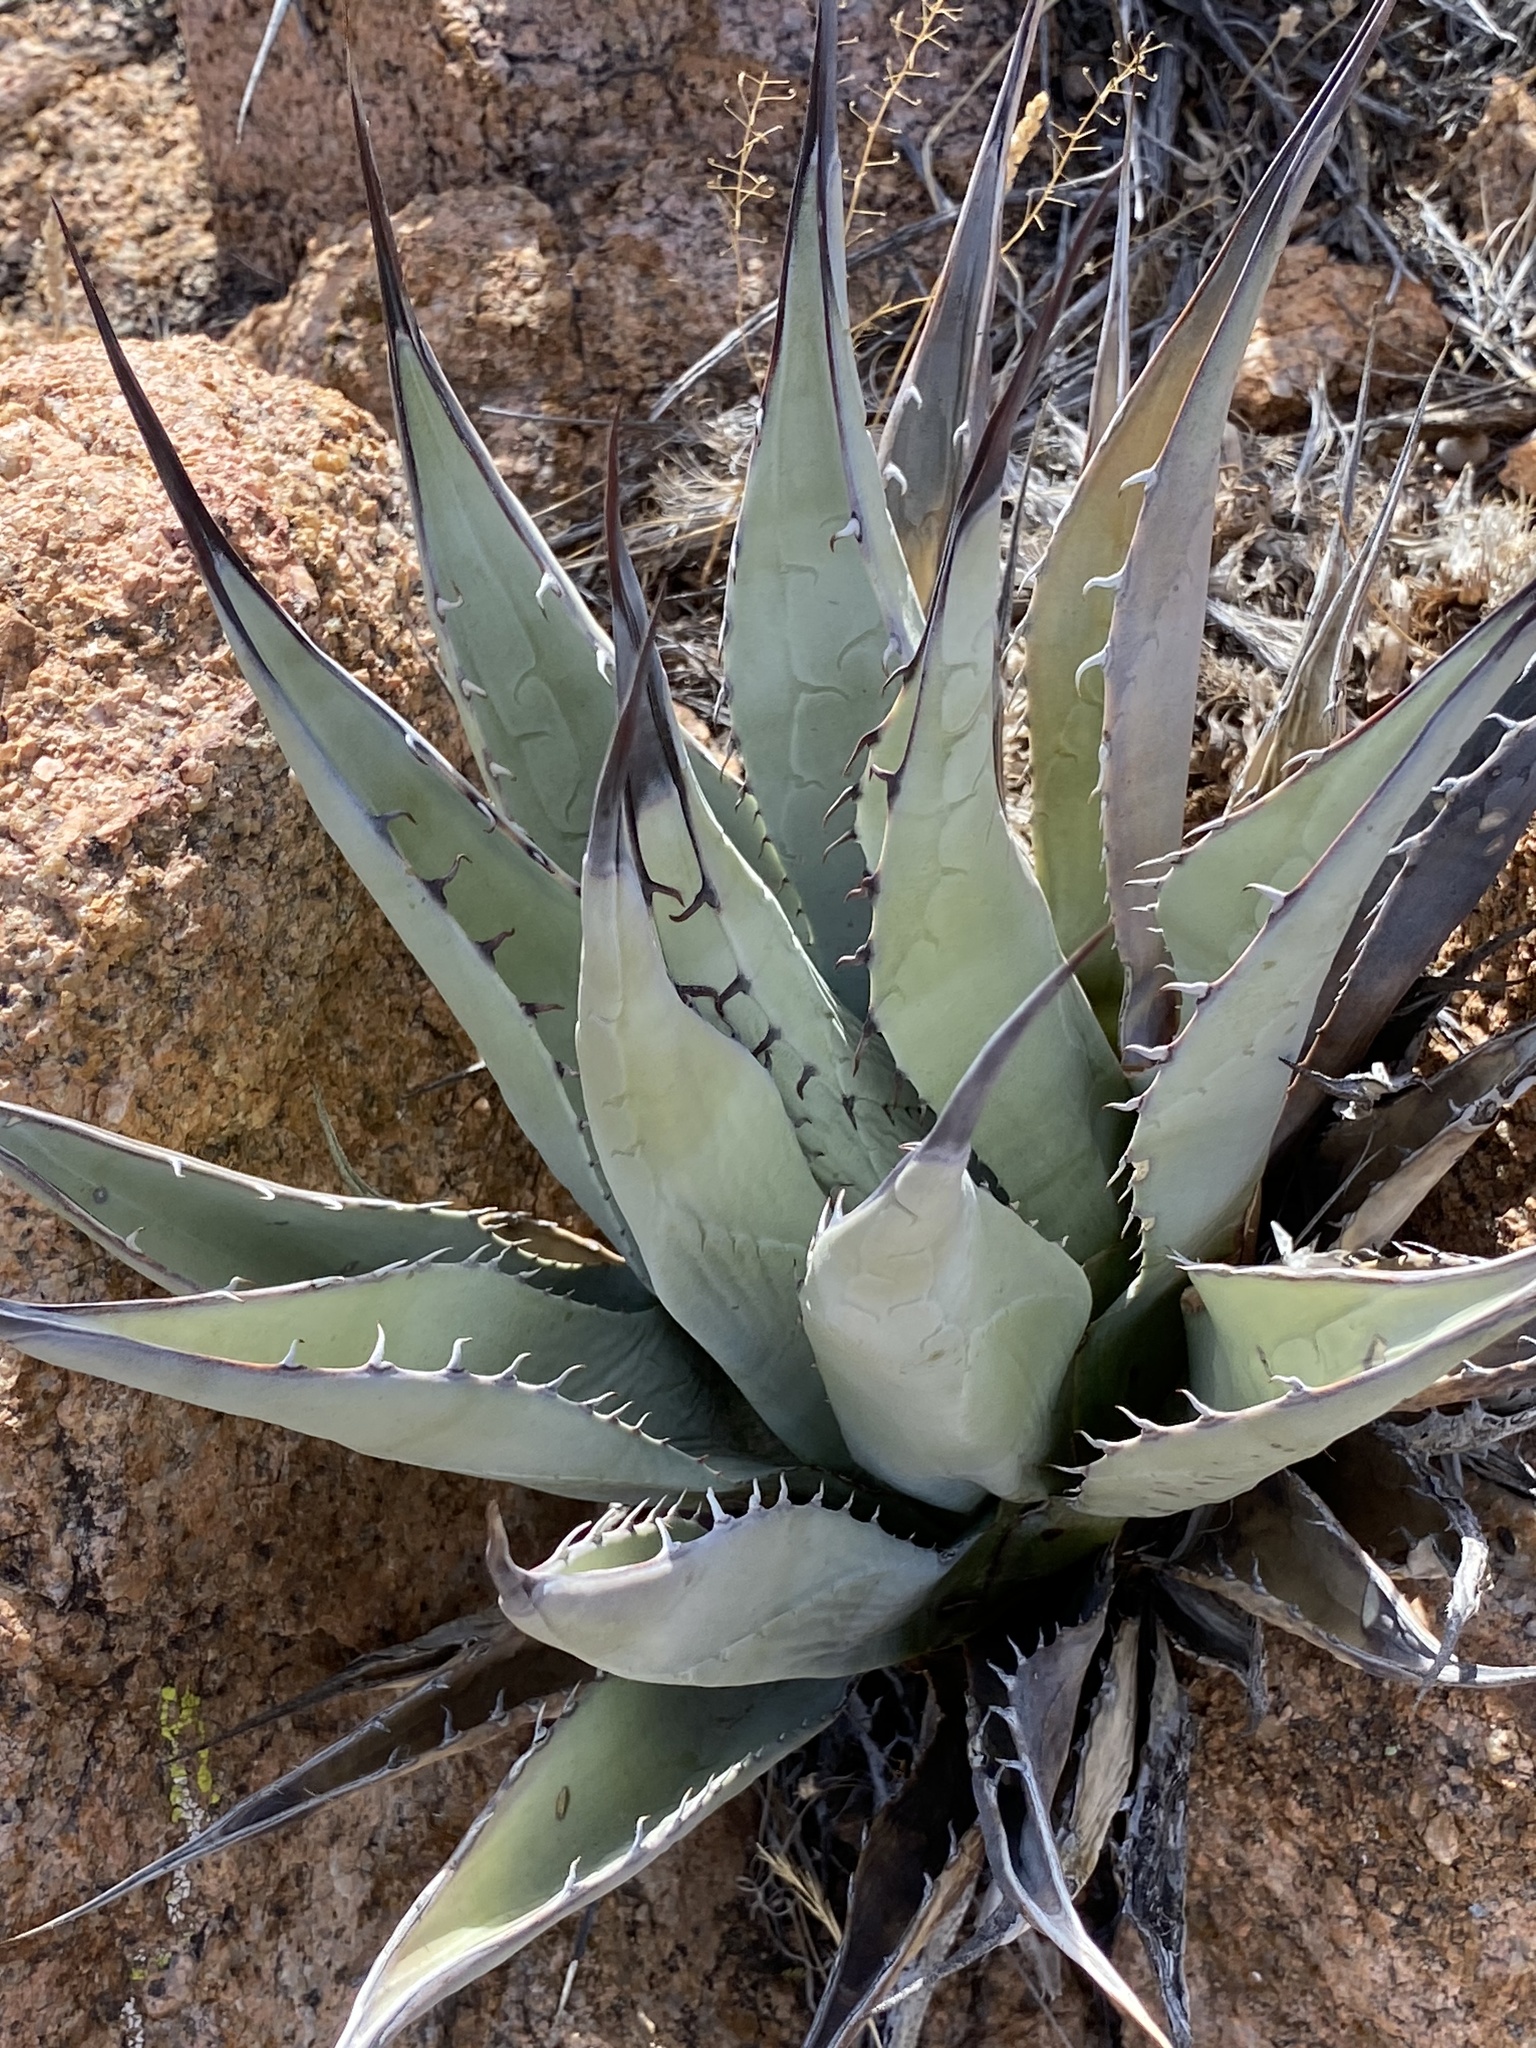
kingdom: Plantae
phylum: Tracheophyta
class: Liliopsida
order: Asparagales
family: Asparagaceae
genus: Agave
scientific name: Agave parryi
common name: Parry's agave
